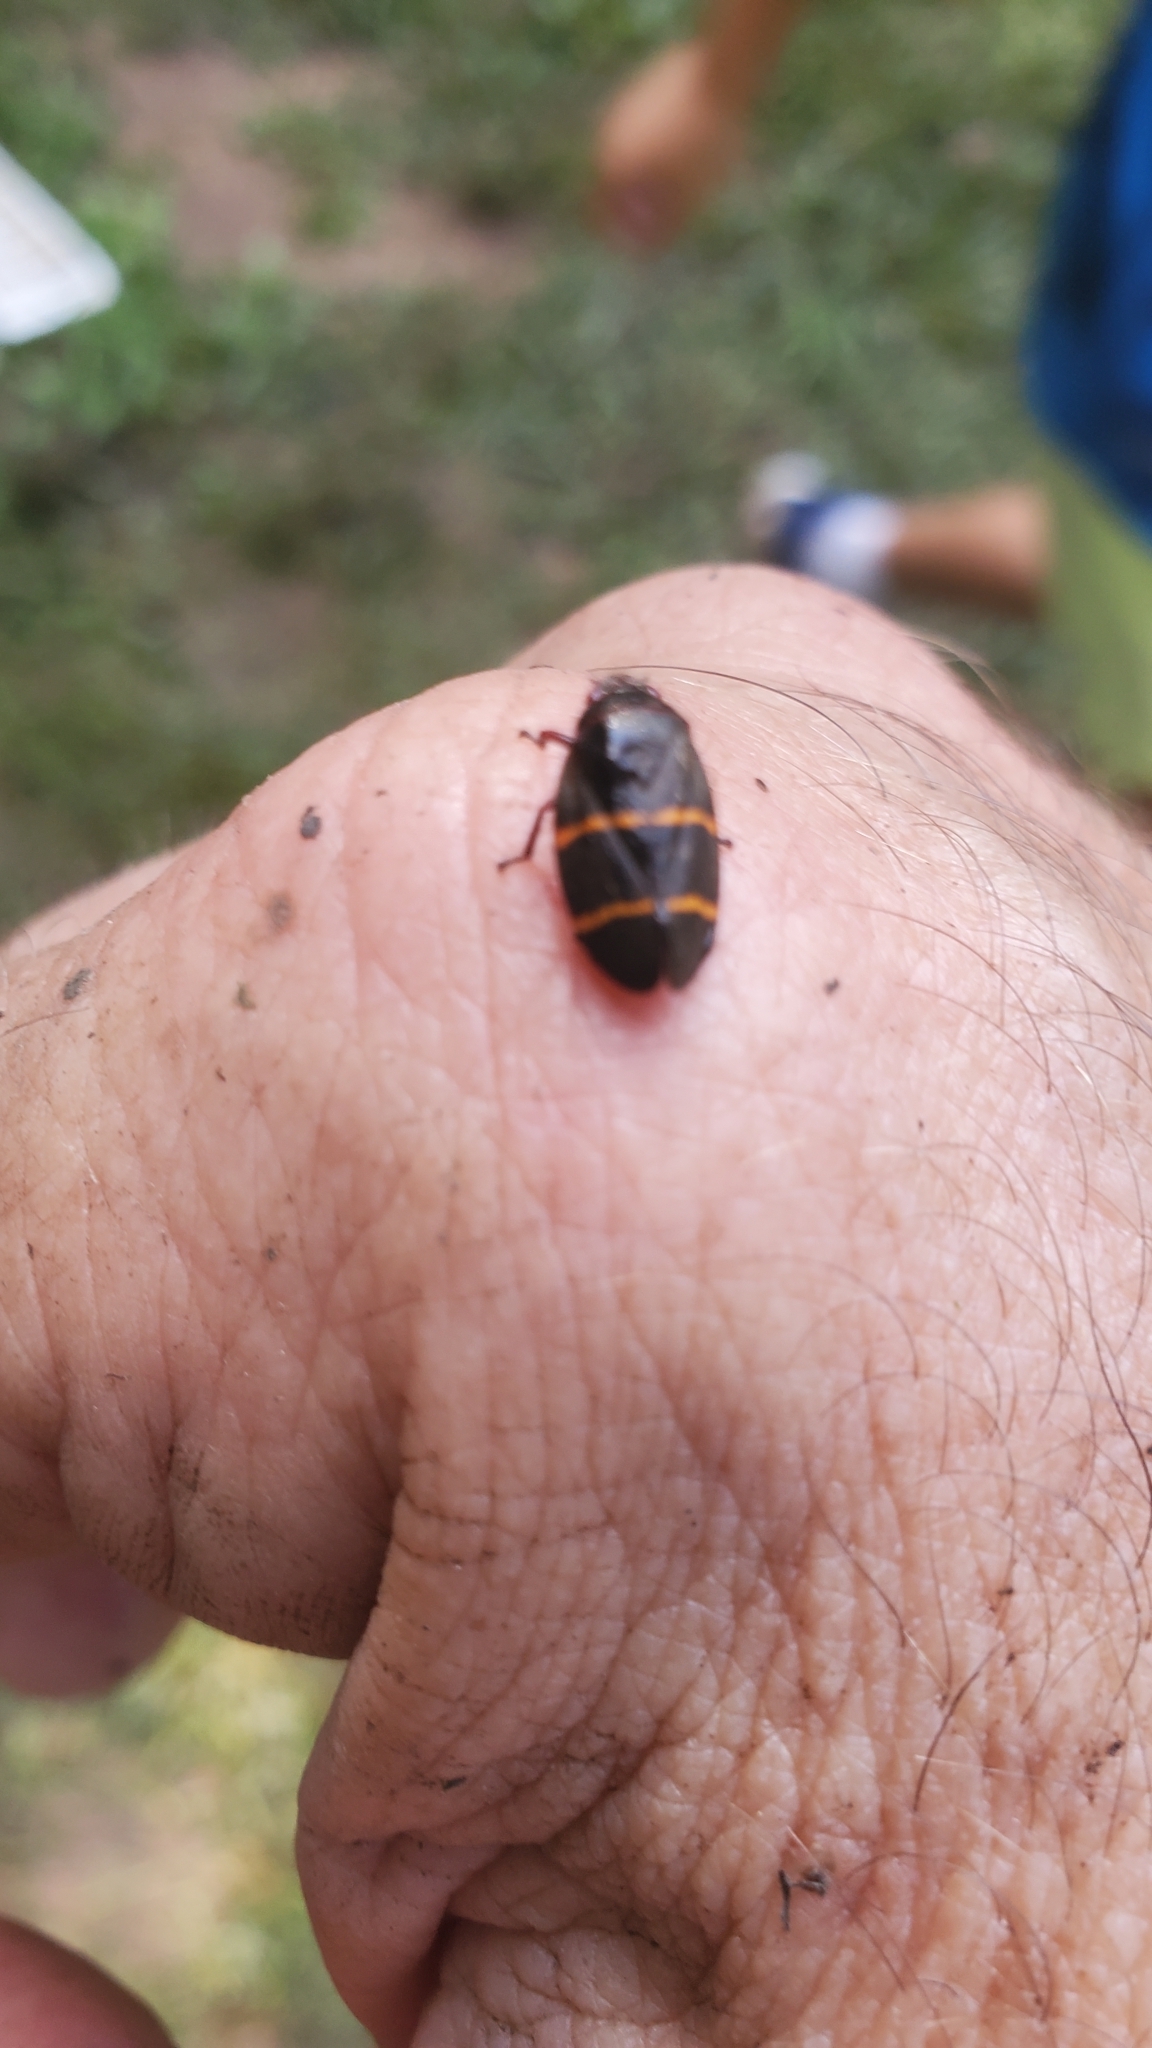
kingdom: Animalia
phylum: Arthropoda
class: Insecta
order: Hemiptera
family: Cercopidae
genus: Prosapia
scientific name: Prosapia bicincta
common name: Twolined spittlebug
